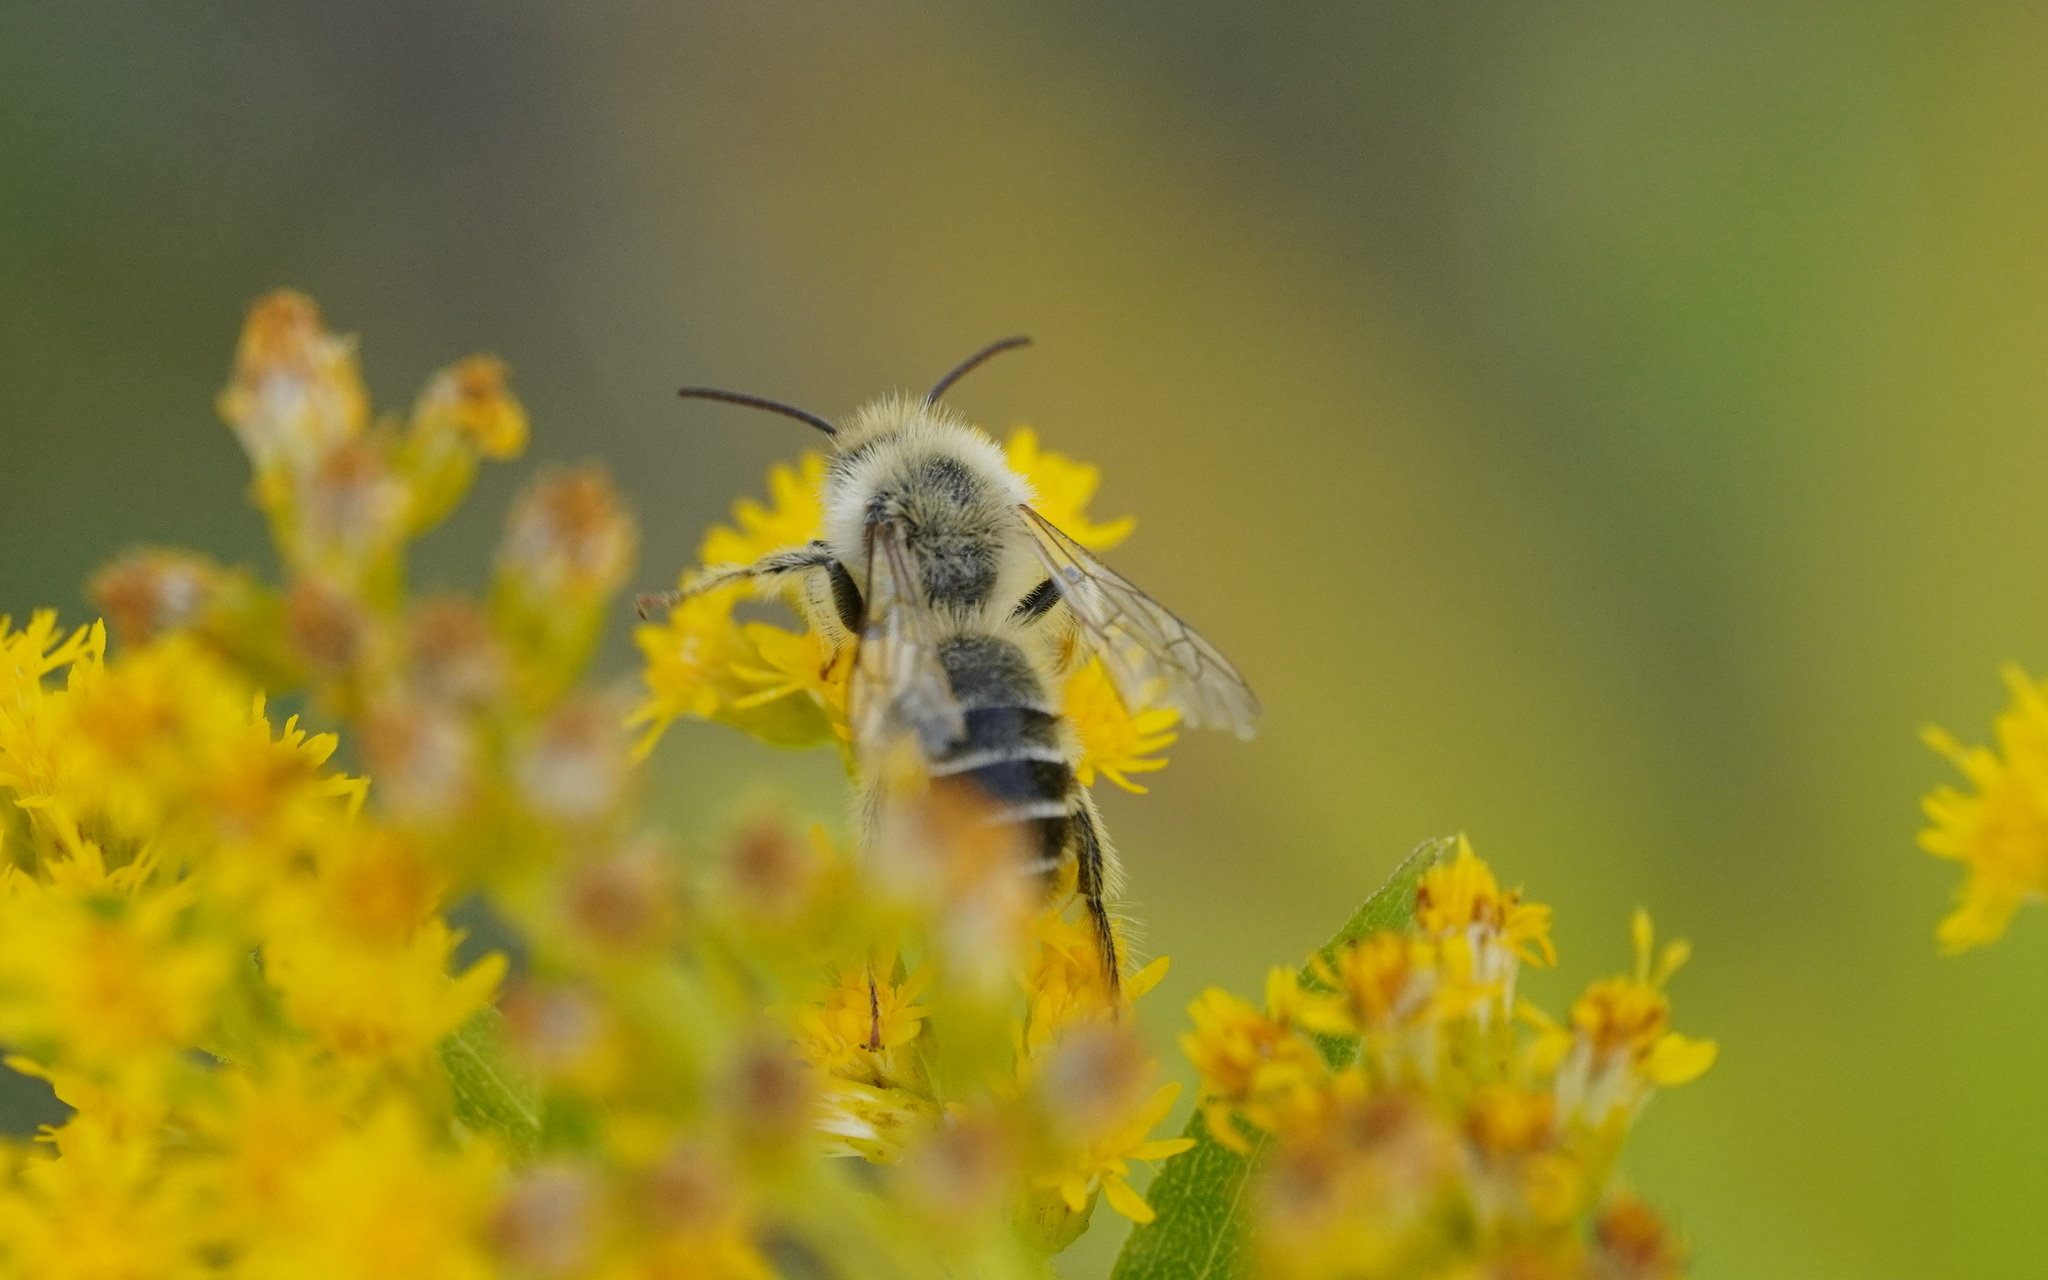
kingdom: Animalia
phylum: Arthropoda
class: Insecta
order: Hymenoptera
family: Melittidae
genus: Dasypoda
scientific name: Dasypoda hirtipes
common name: Pantaloon bee
